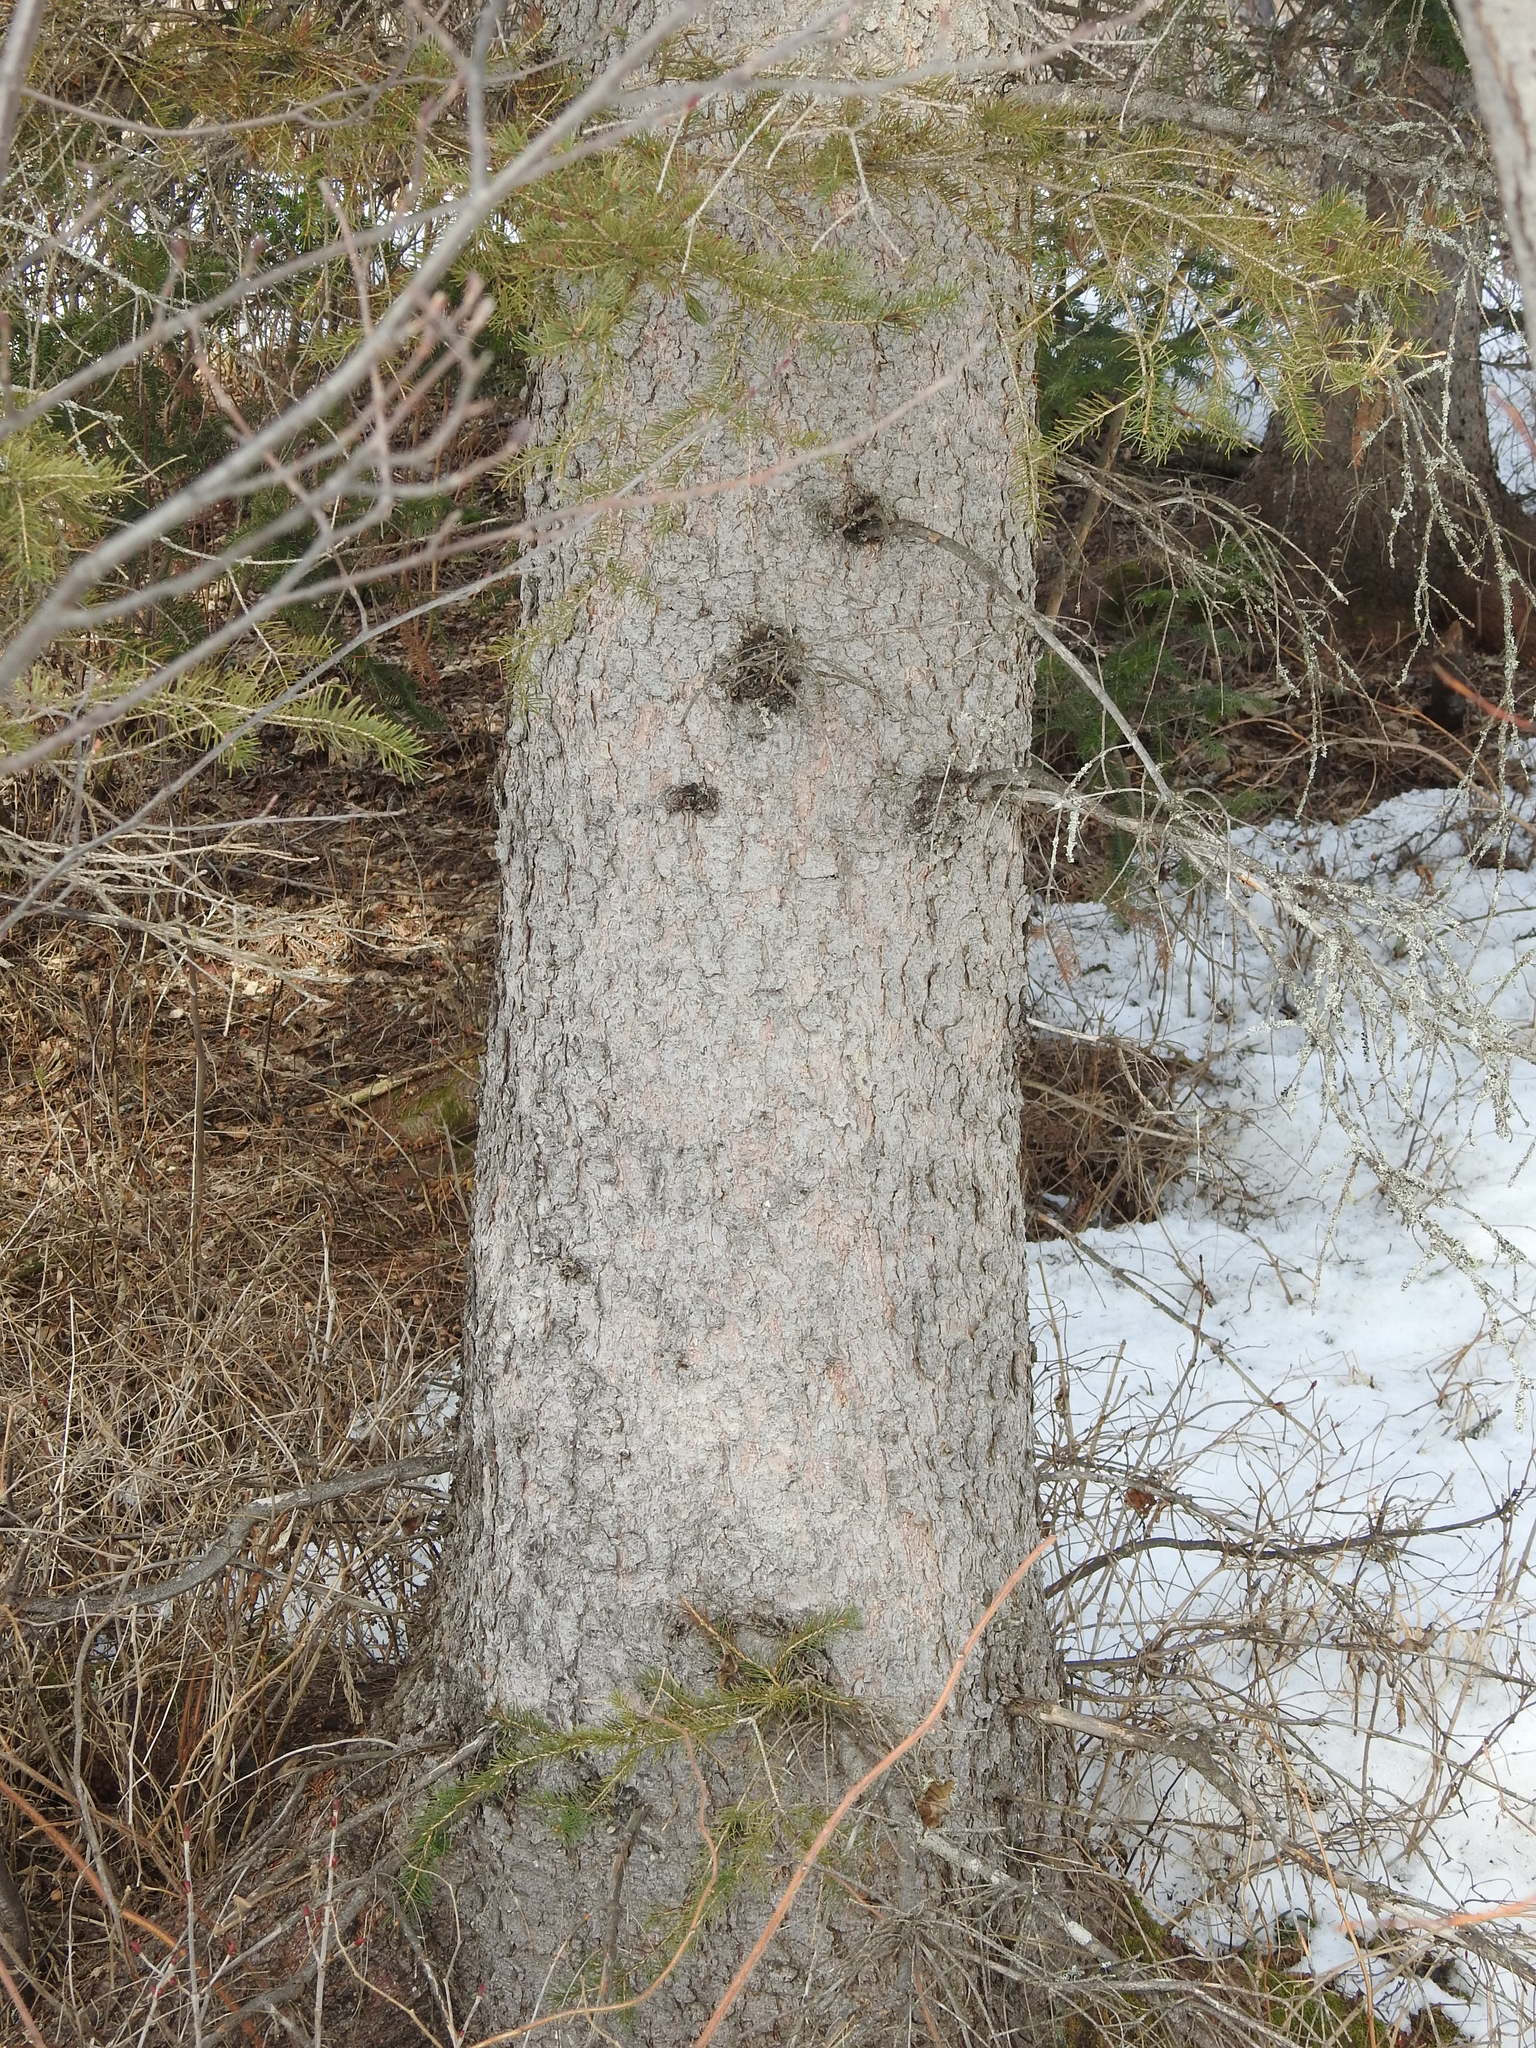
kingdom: Plantae
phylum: Tracheophyta
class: Pinopsida
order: Pinales
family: Pinaceae
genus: Picea
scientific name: Picea glauca
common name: White spruce
